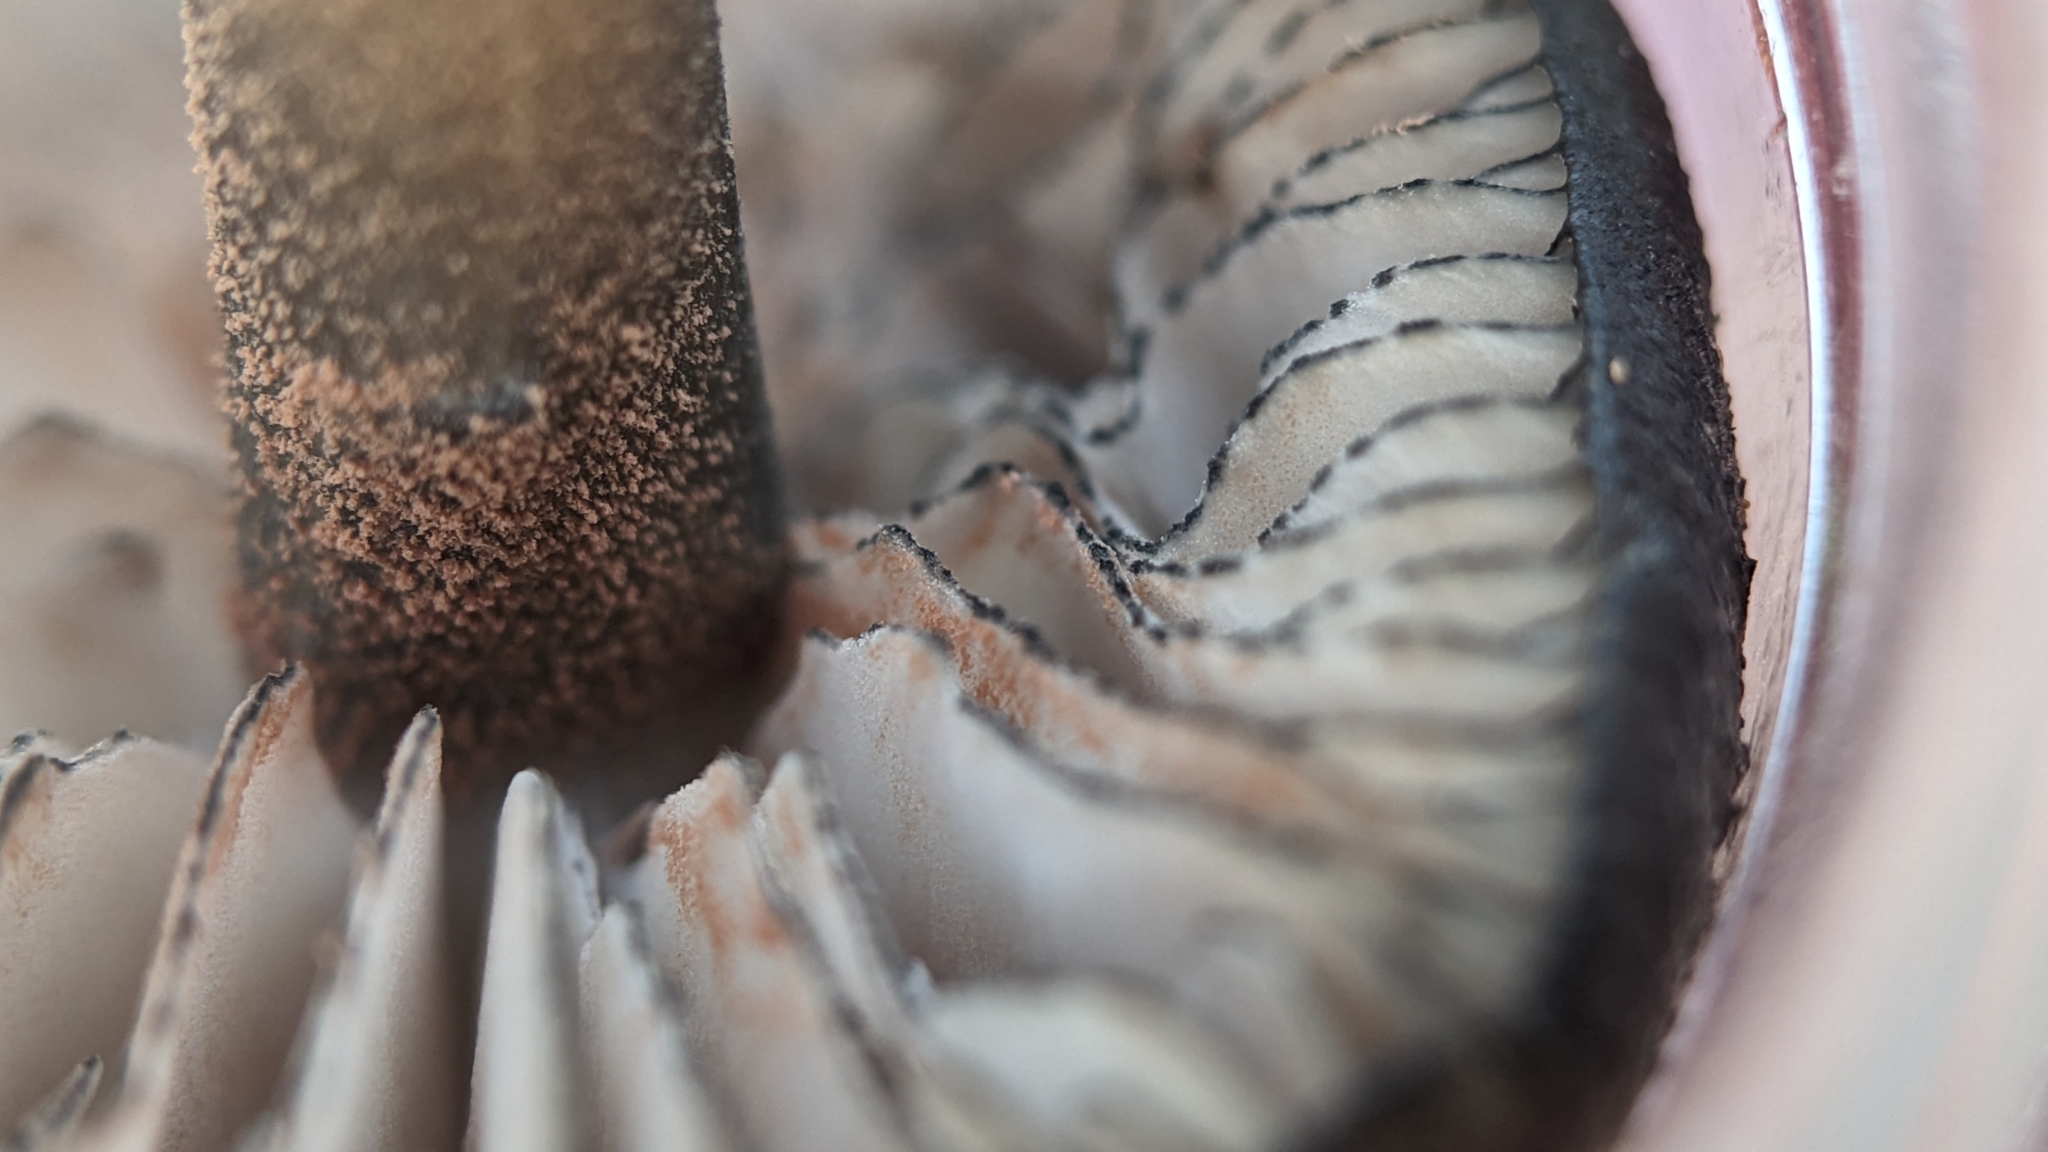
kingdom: Fungi
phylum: Basidiomycota
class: Agaricomycetes
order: Agaricales
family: Entolomataceae
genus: Entoloma
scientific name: Entoloma serrulatum
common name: Blue edge pinkgill
